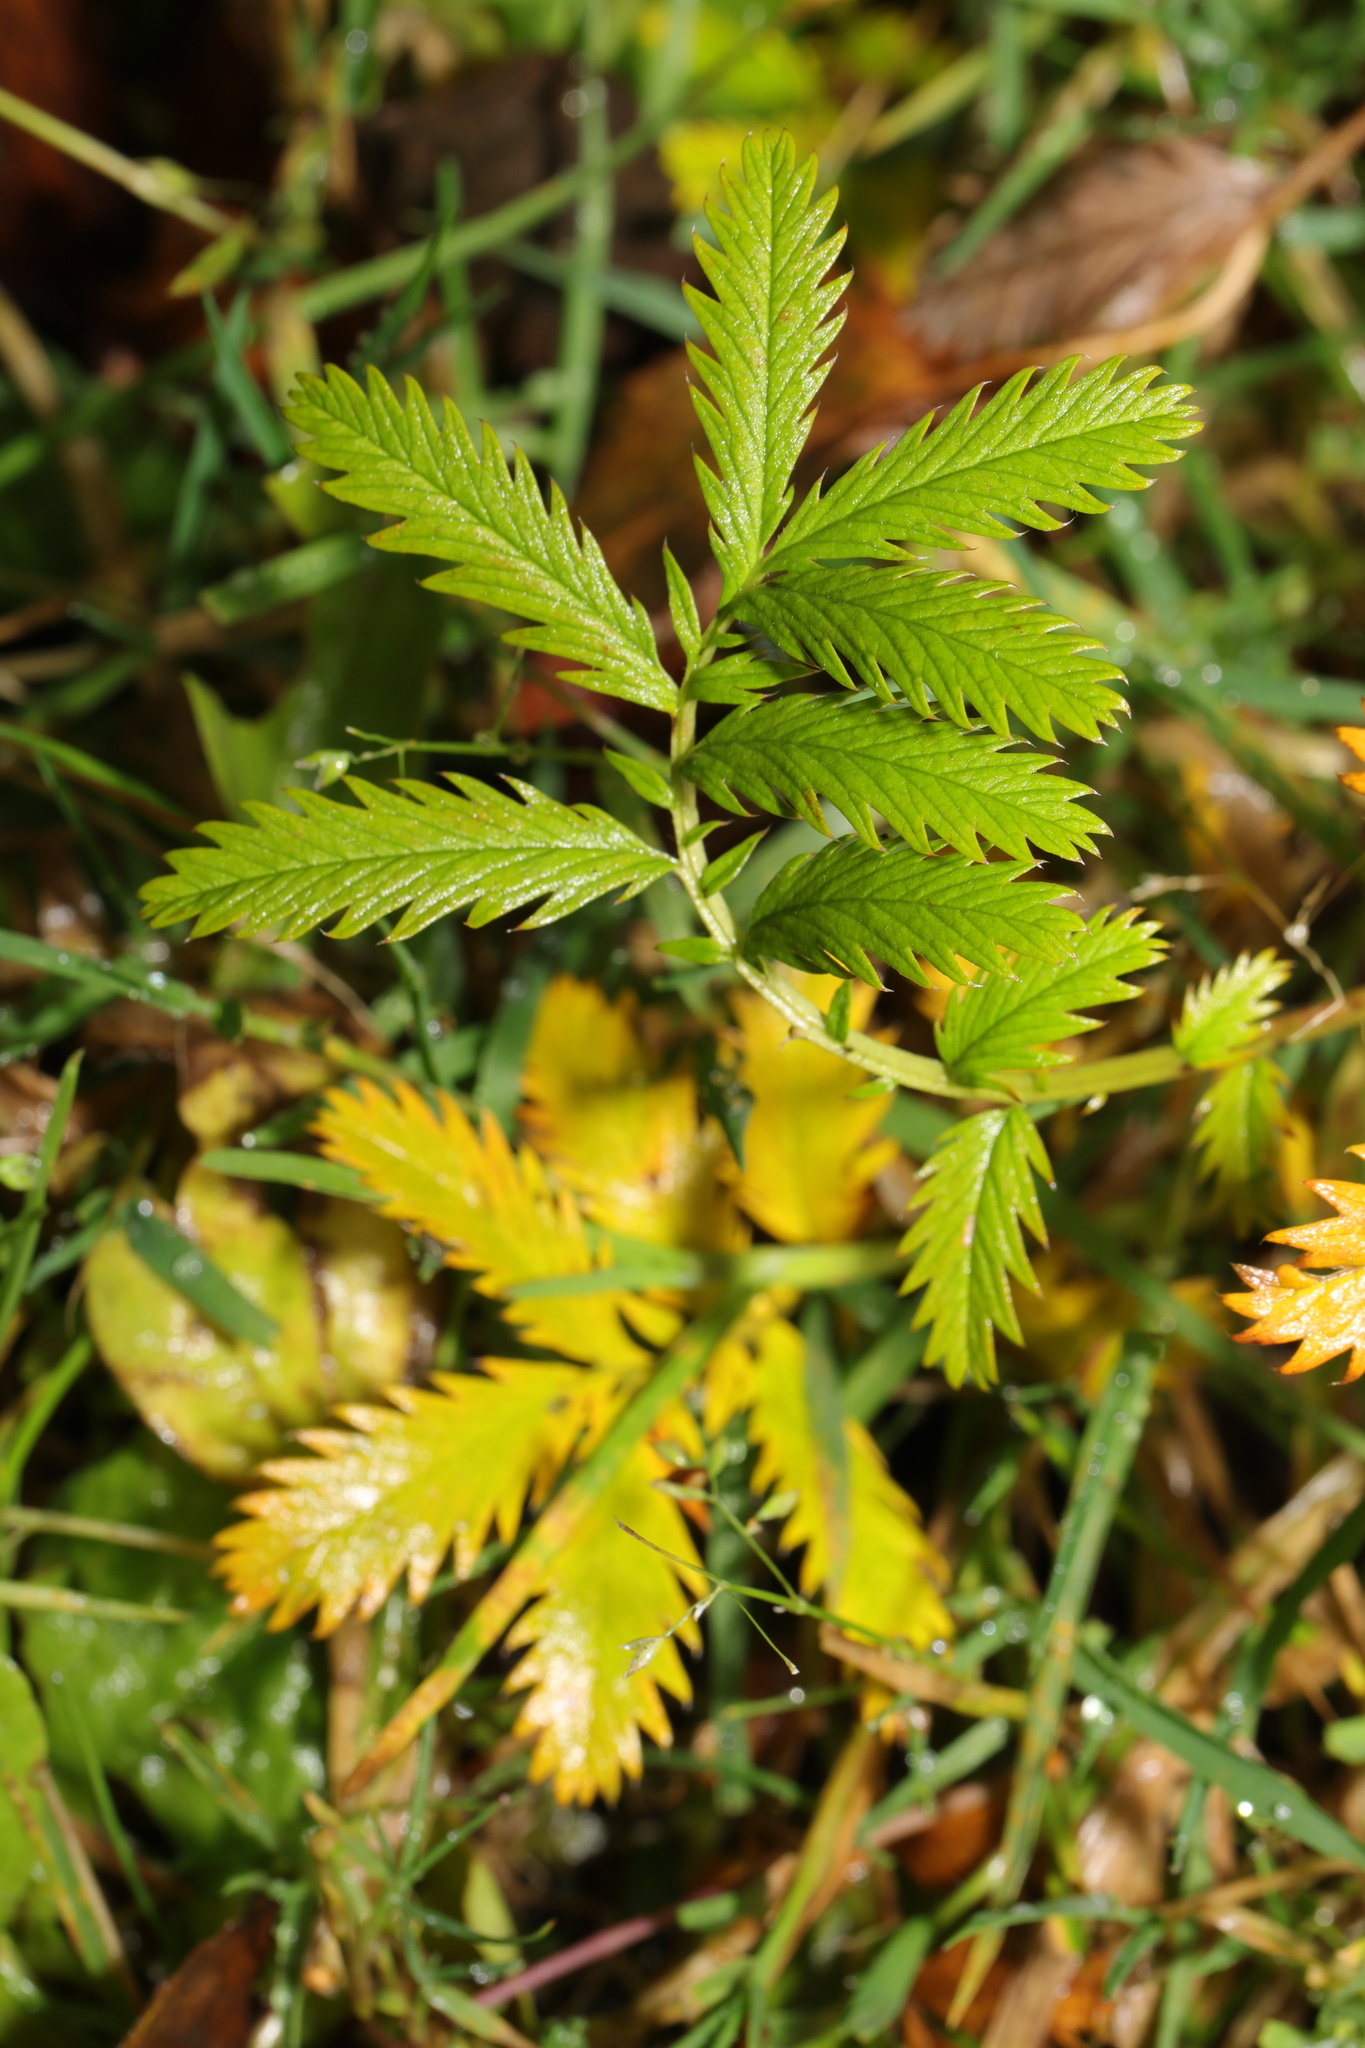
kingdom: Plantae
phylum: Tracheophyta
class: Magnoliopsida
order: Rosales
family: Rosaceae
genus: Argentina
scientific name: Argentina anserina
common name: Common silverweed
